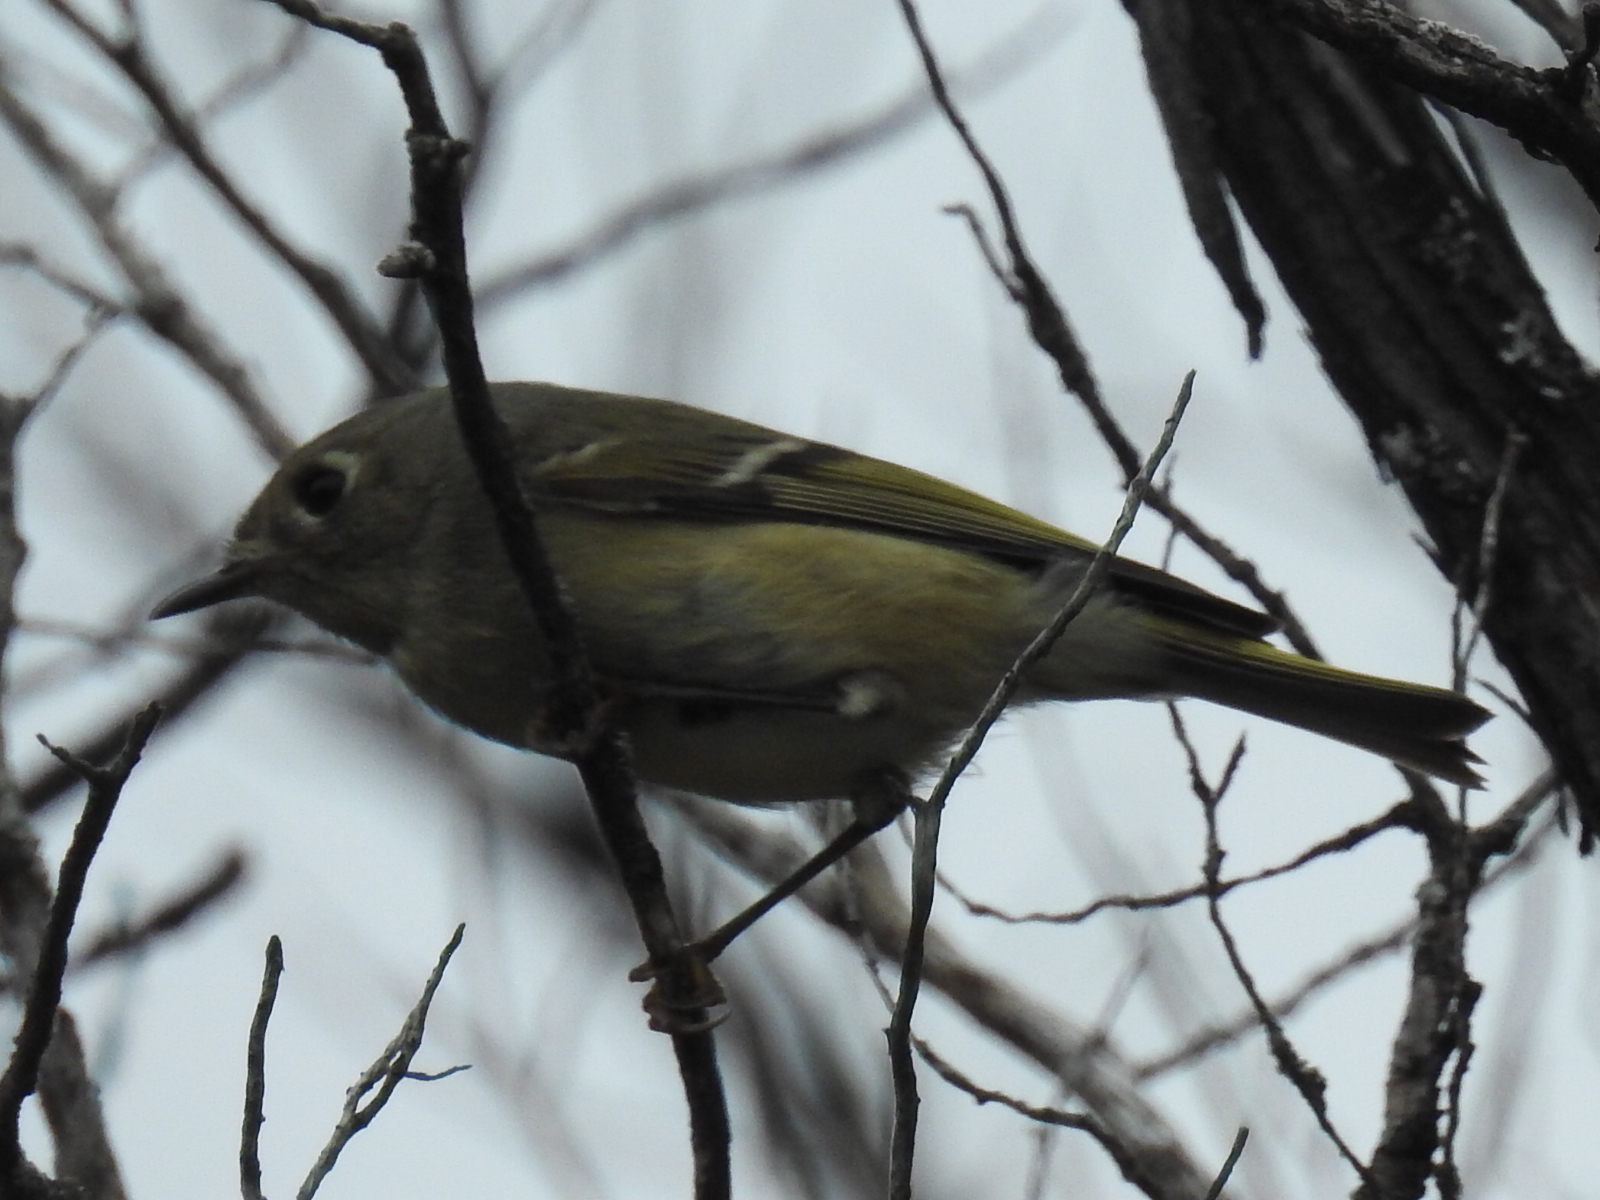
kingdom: Animalia
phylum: Chordata
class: Aves
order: Passeriformes
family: Regulidae
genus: Regulus
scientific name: Regulus calendula
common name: Ruby-crowned kinglet
